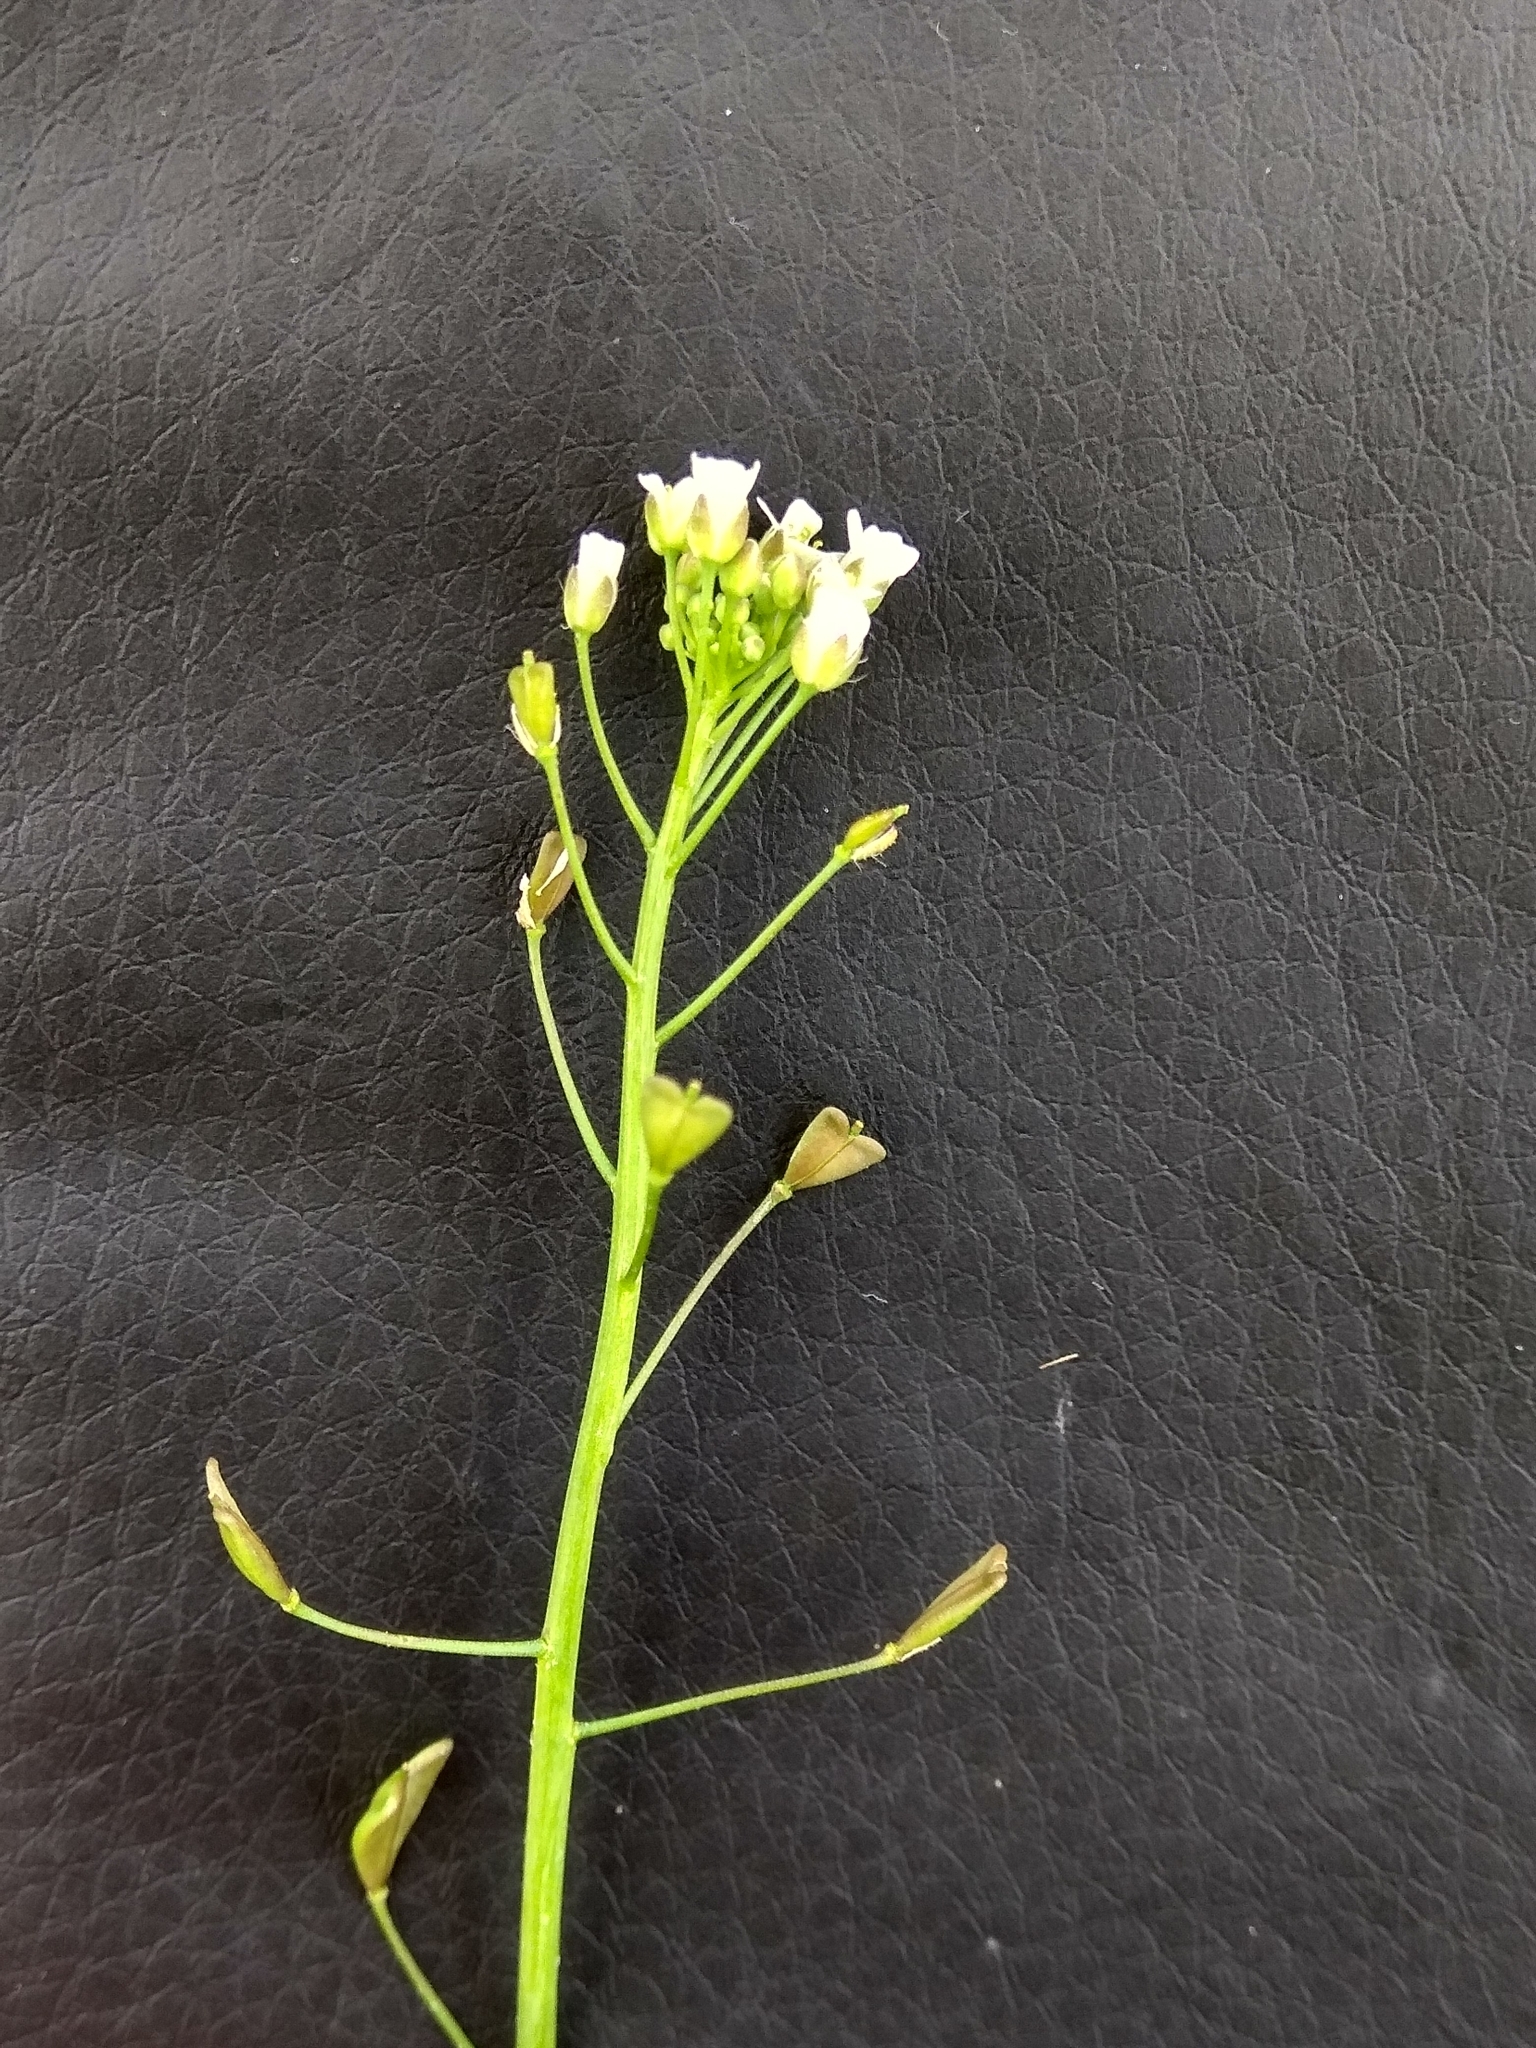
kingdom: Plantae
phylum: Tracheophyta
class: Magnoliopsida
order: Brassicales
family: Brassicaceae
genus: Capsella
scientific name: Capsella bursa-pastoris
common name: Shepherd's purse
